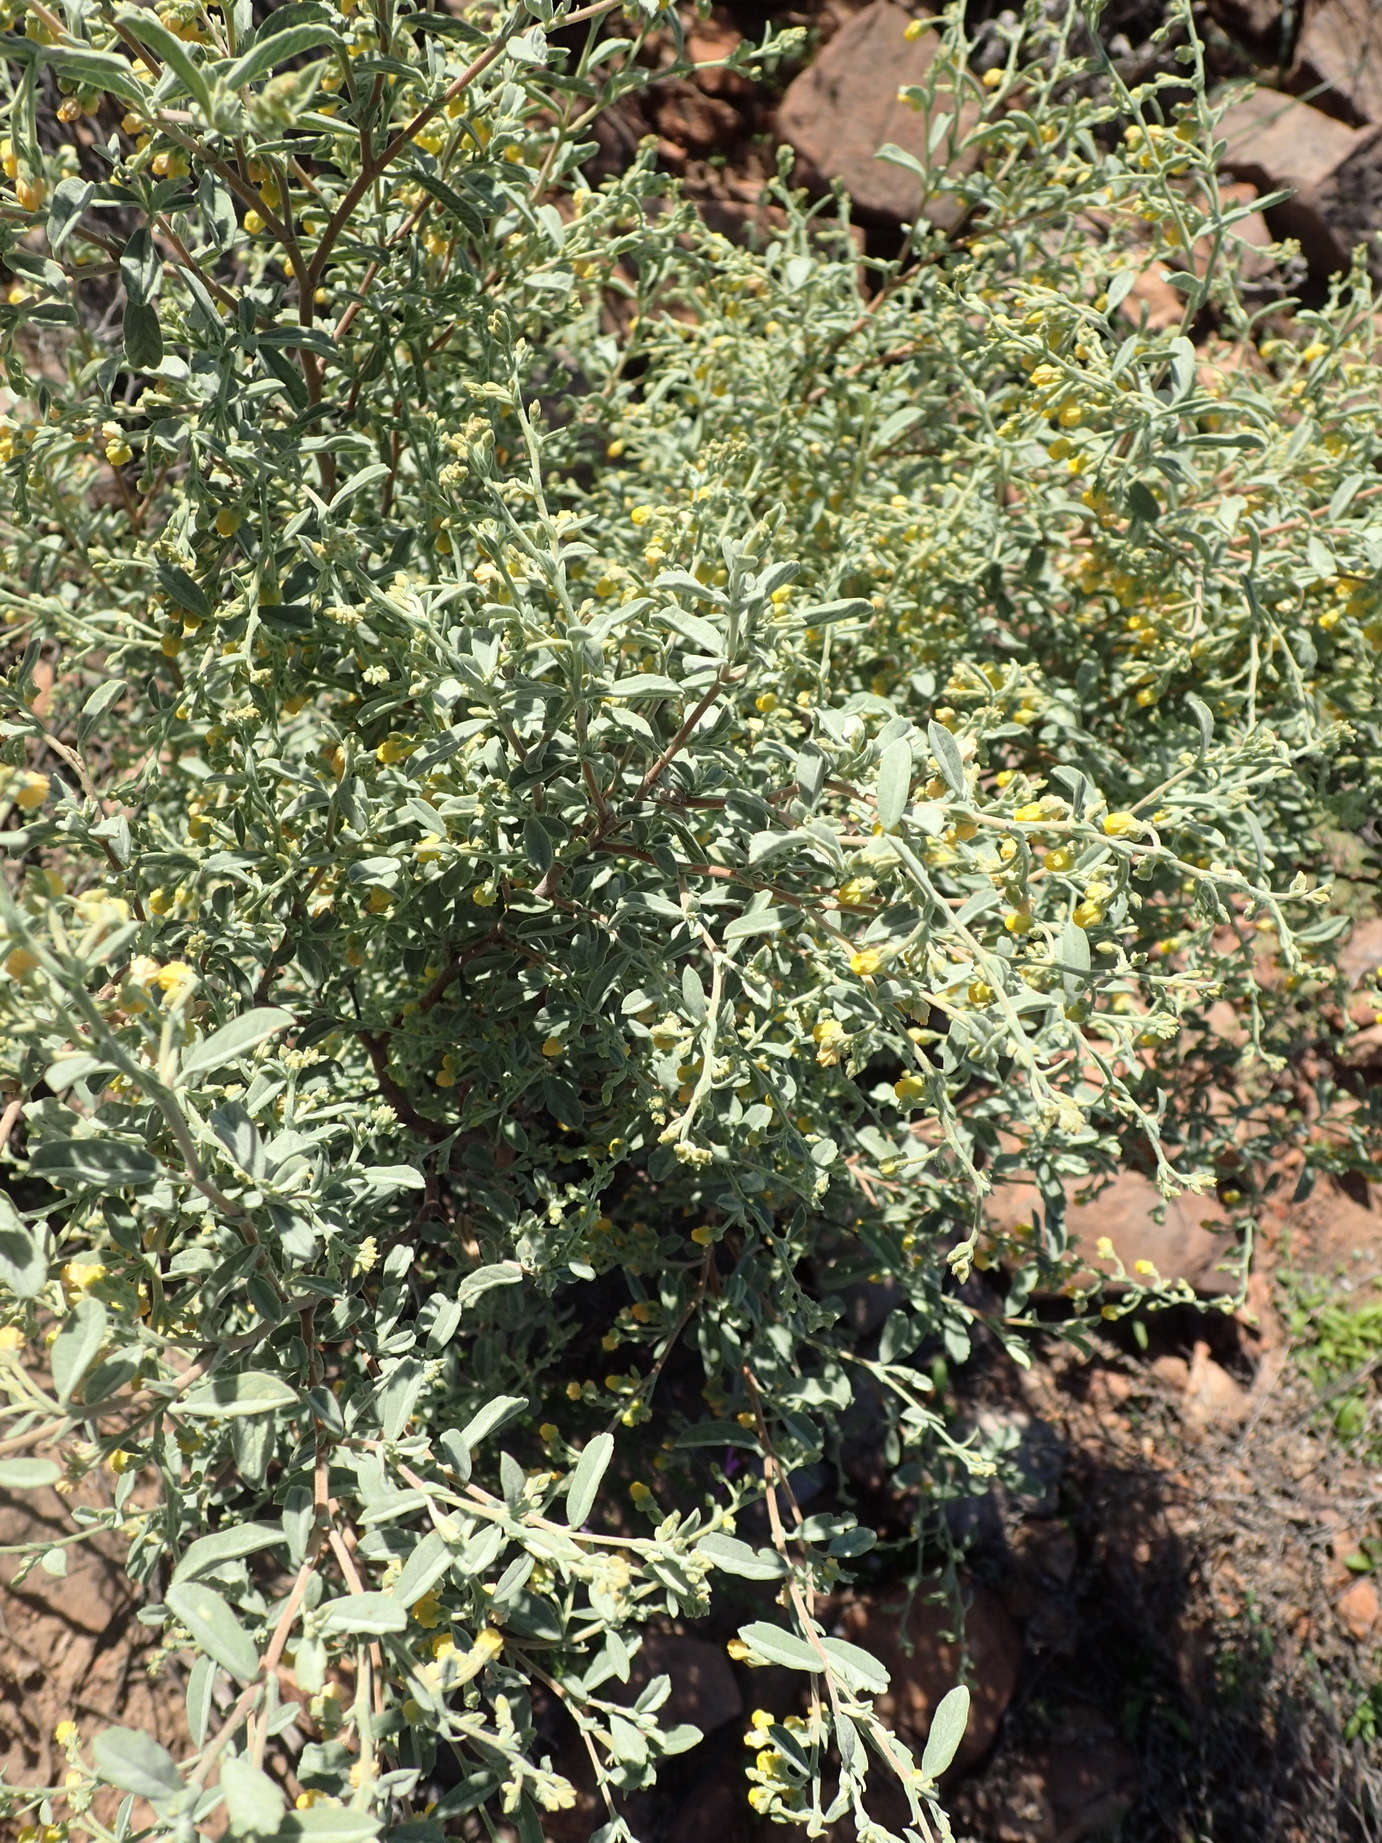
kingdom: Plantae
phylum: Tracheophyta
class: Magnoliopsida
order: Malvales
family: Malvaceae
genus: Hermannia
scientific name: Hermannia holosericea
